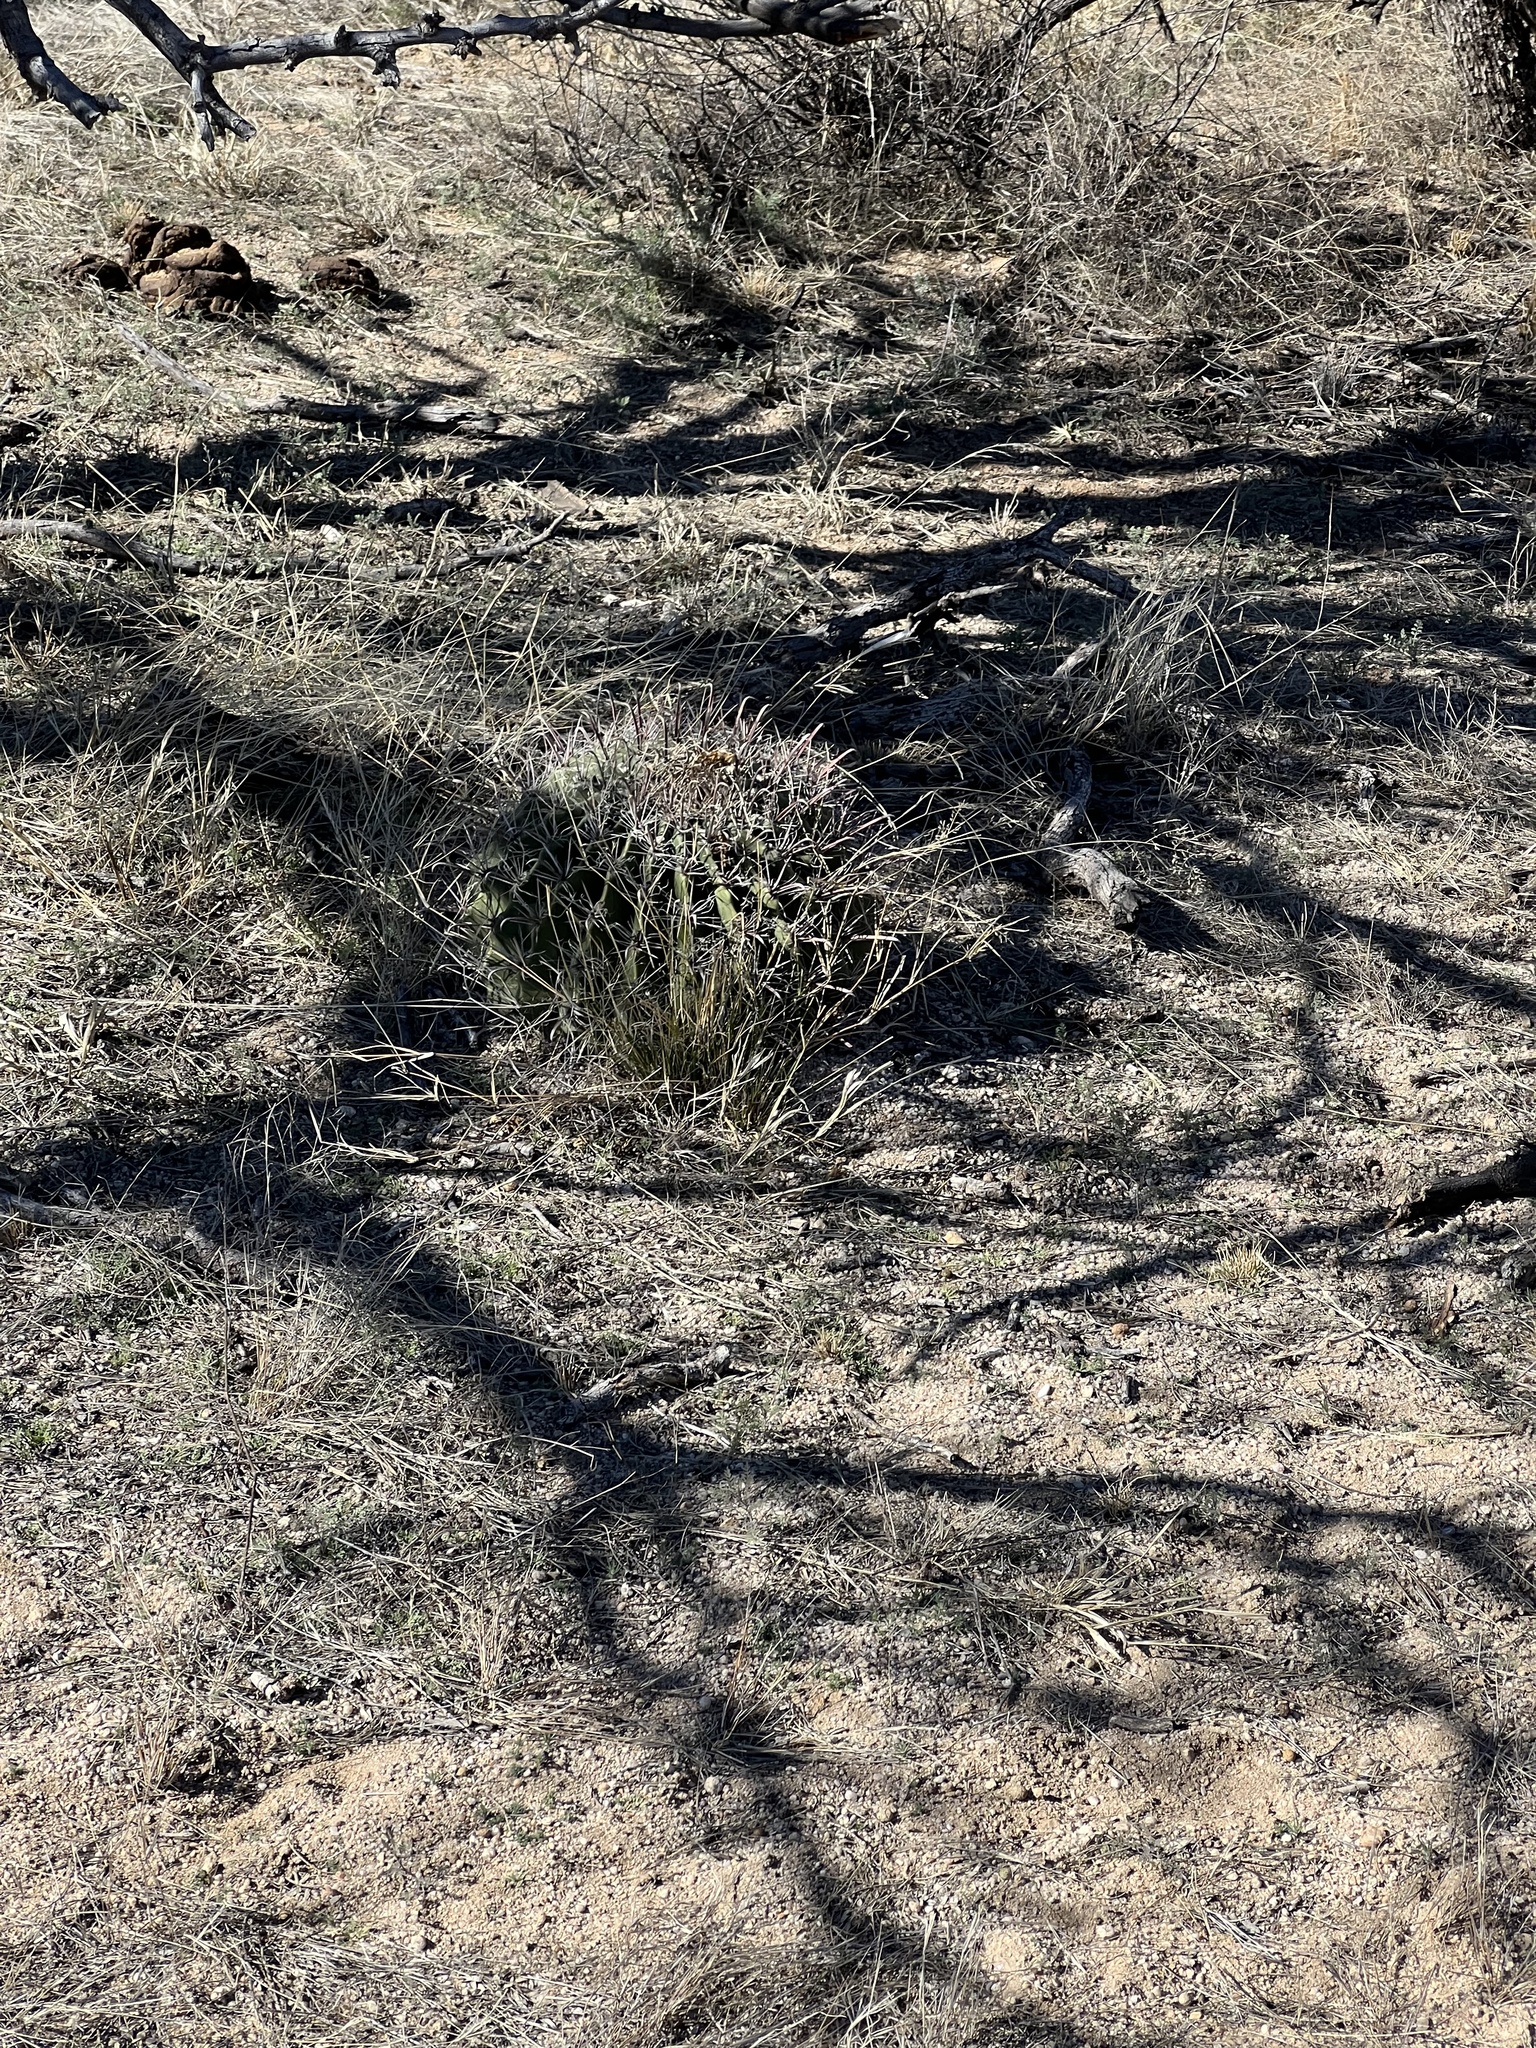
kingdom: Plantae
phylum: Tracheophyta
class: Magnoliopsida
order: Caryophyllales
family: Cactaceae
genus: Ferocactus
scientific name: Ferocactus wislizeni
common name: Candy barrel cactus
